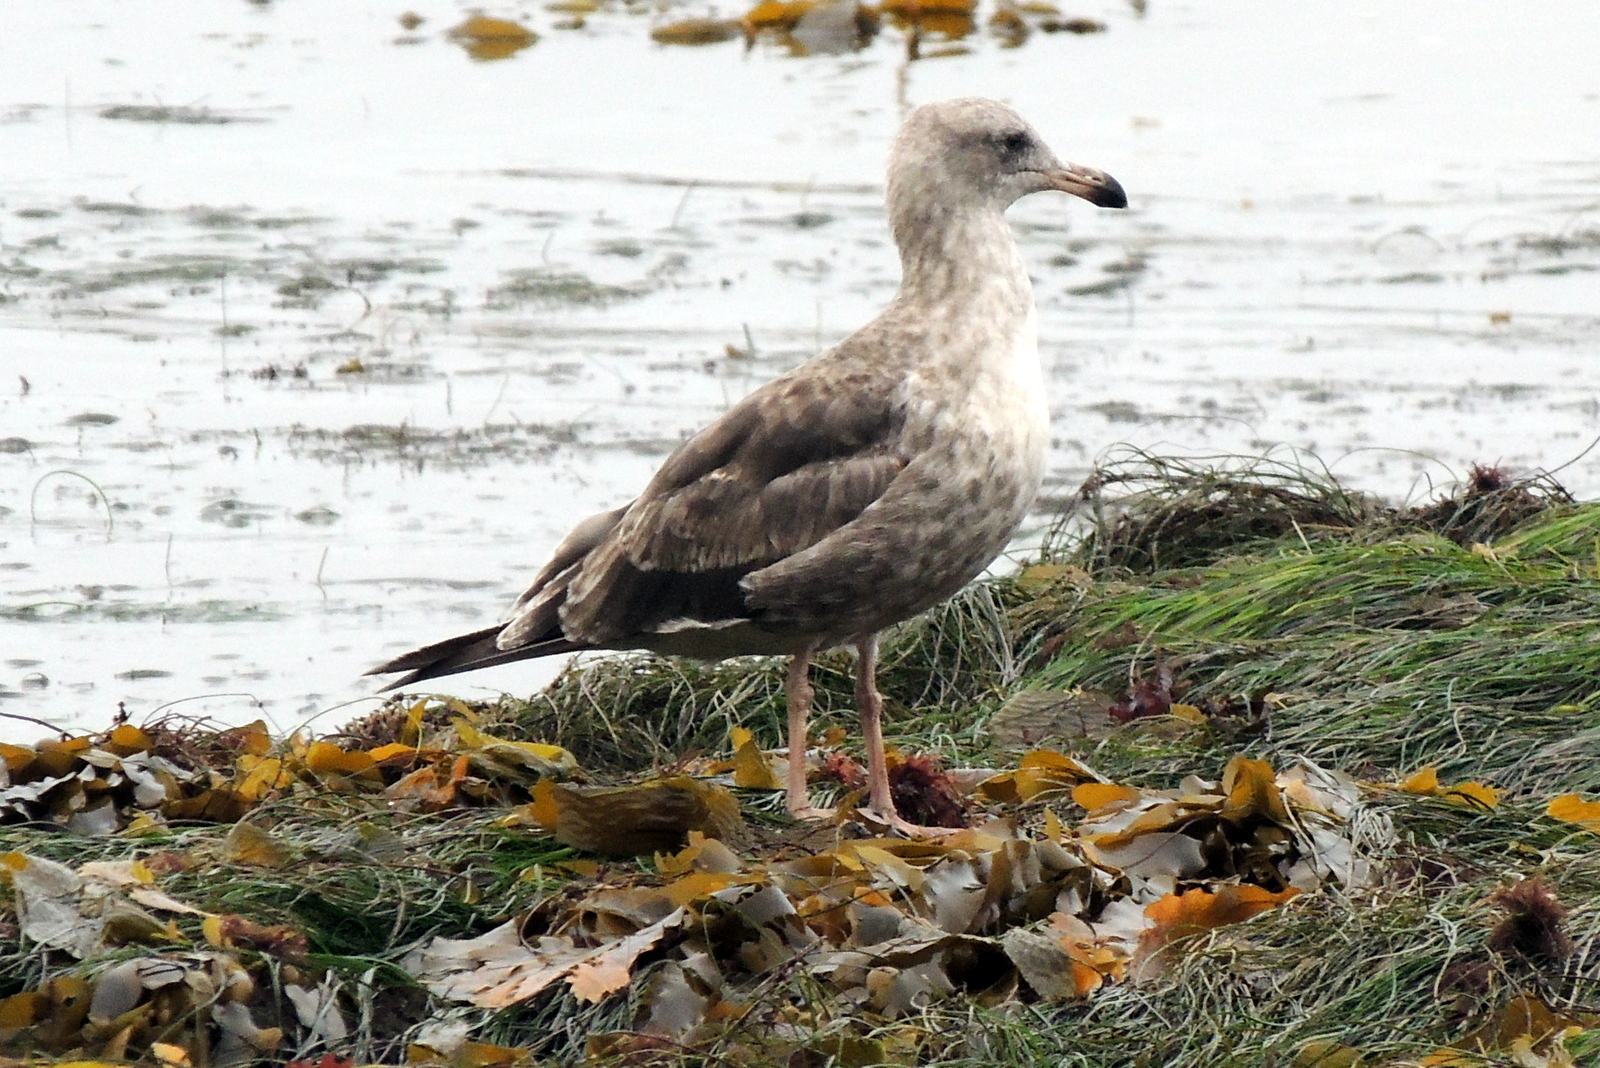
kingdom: Animalia
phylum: Chordata
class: Aves
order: Charadriiformes
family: Laridae
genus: Larus
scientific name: Larus occidentalis
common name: Western gull
